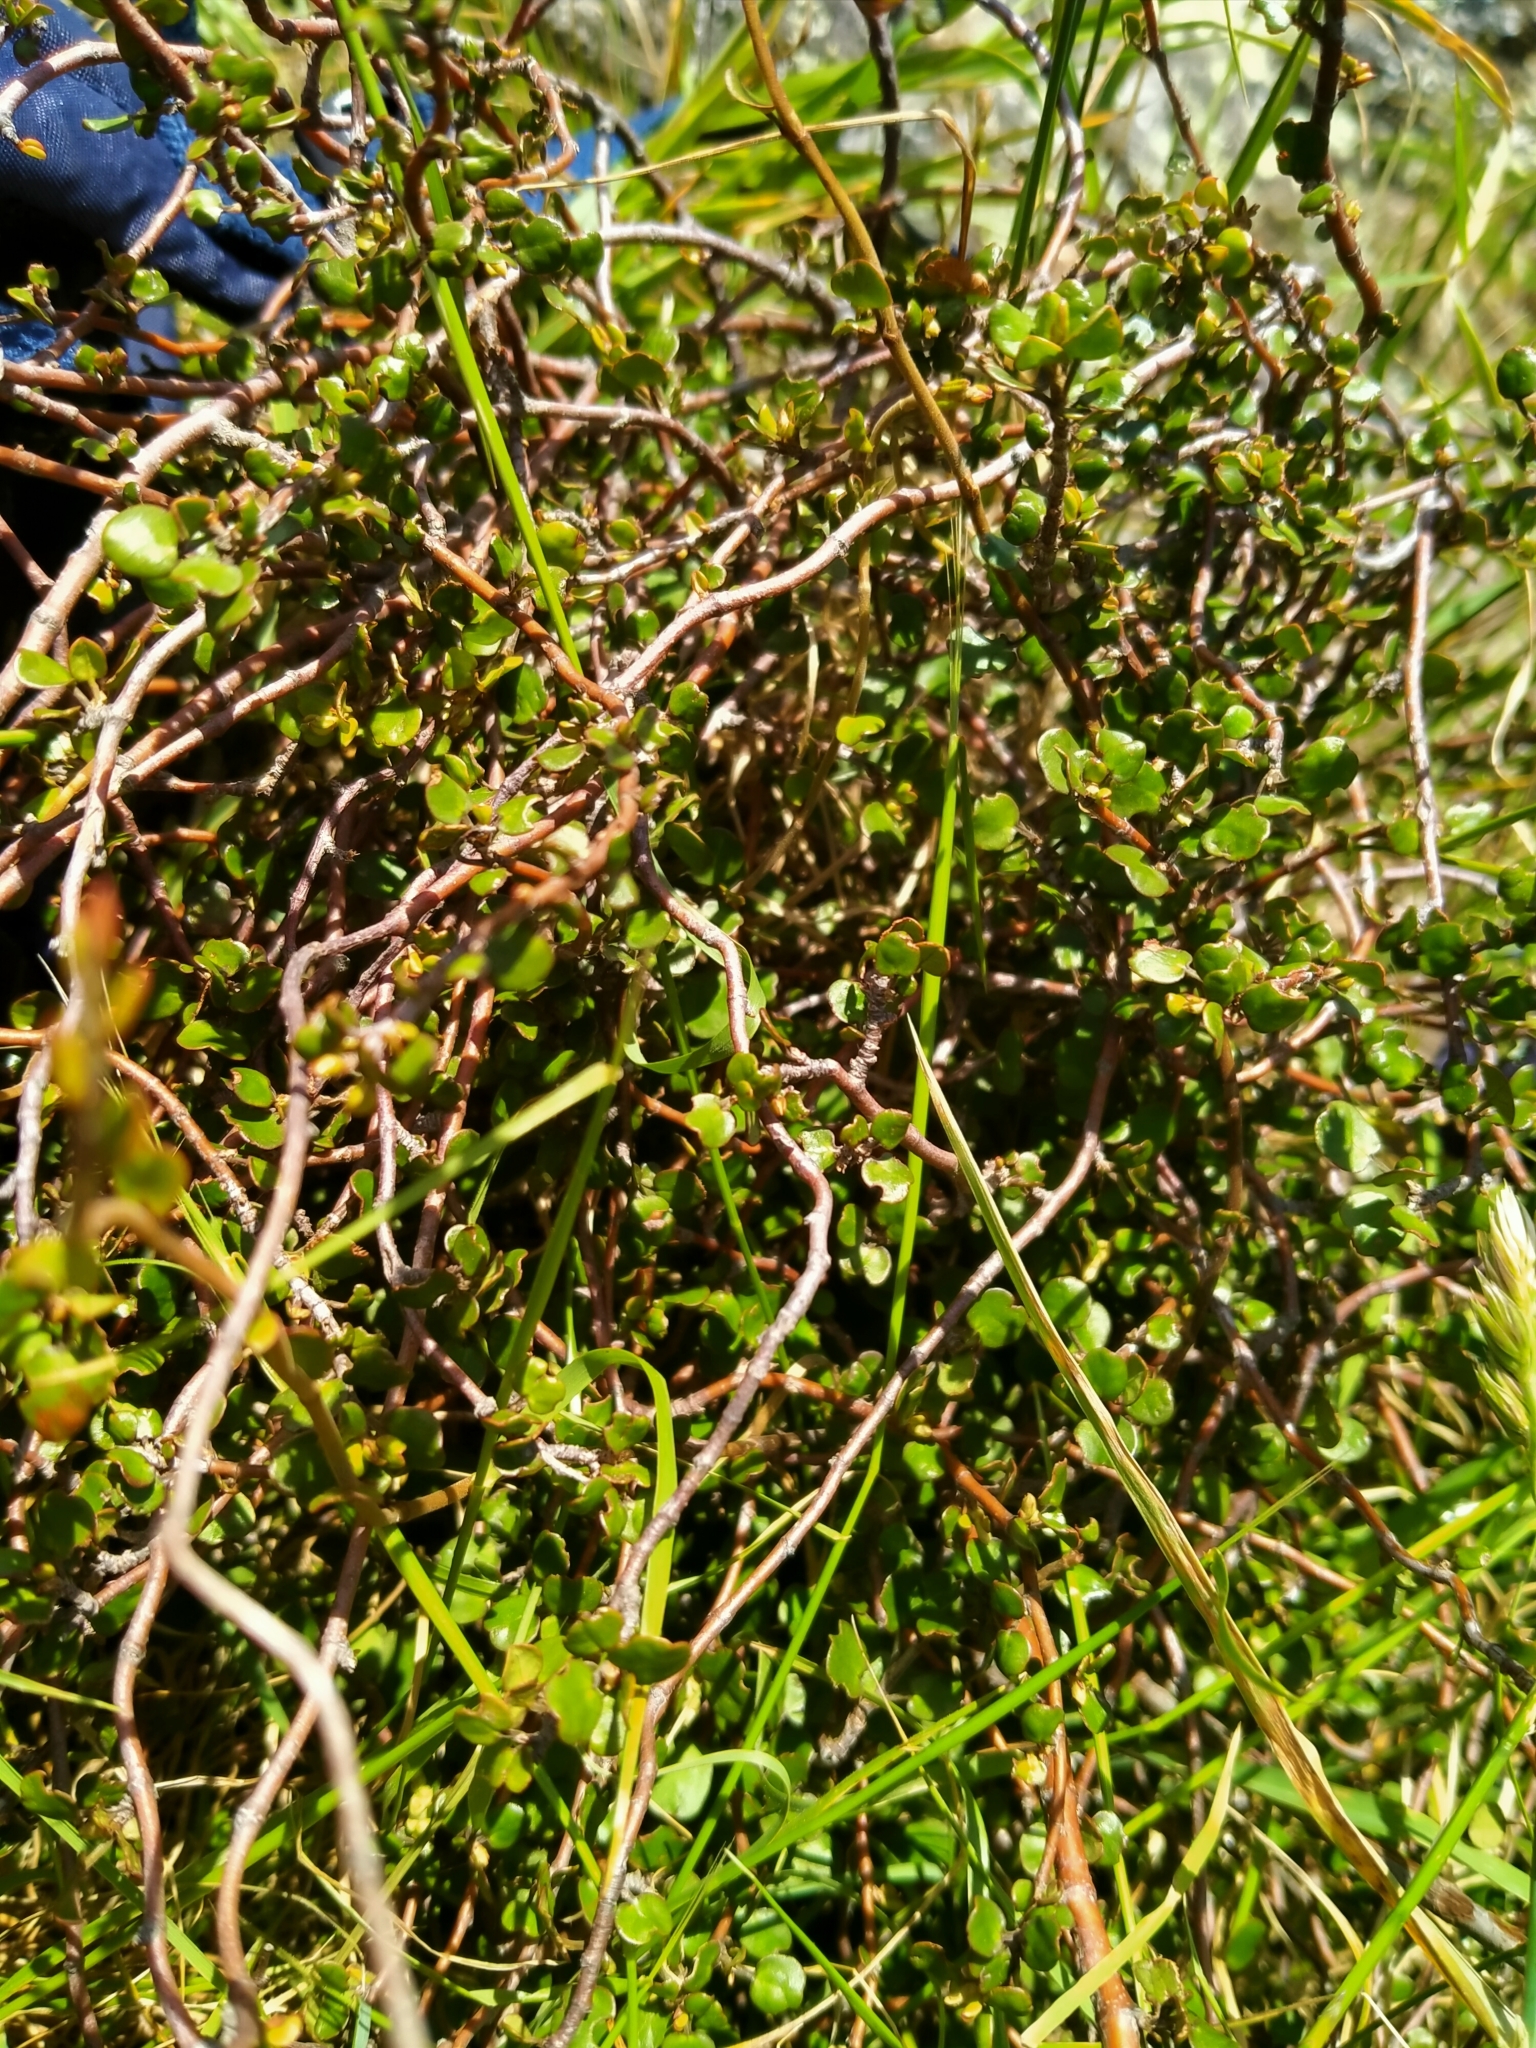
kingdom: Plantae
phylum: Tracheophyta
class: Magnoliopsida
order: Caryophyllales
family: Polygonaceae
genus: Muehlenbeckia
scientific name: Muehlenbeckia complexa
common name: Wireplant
